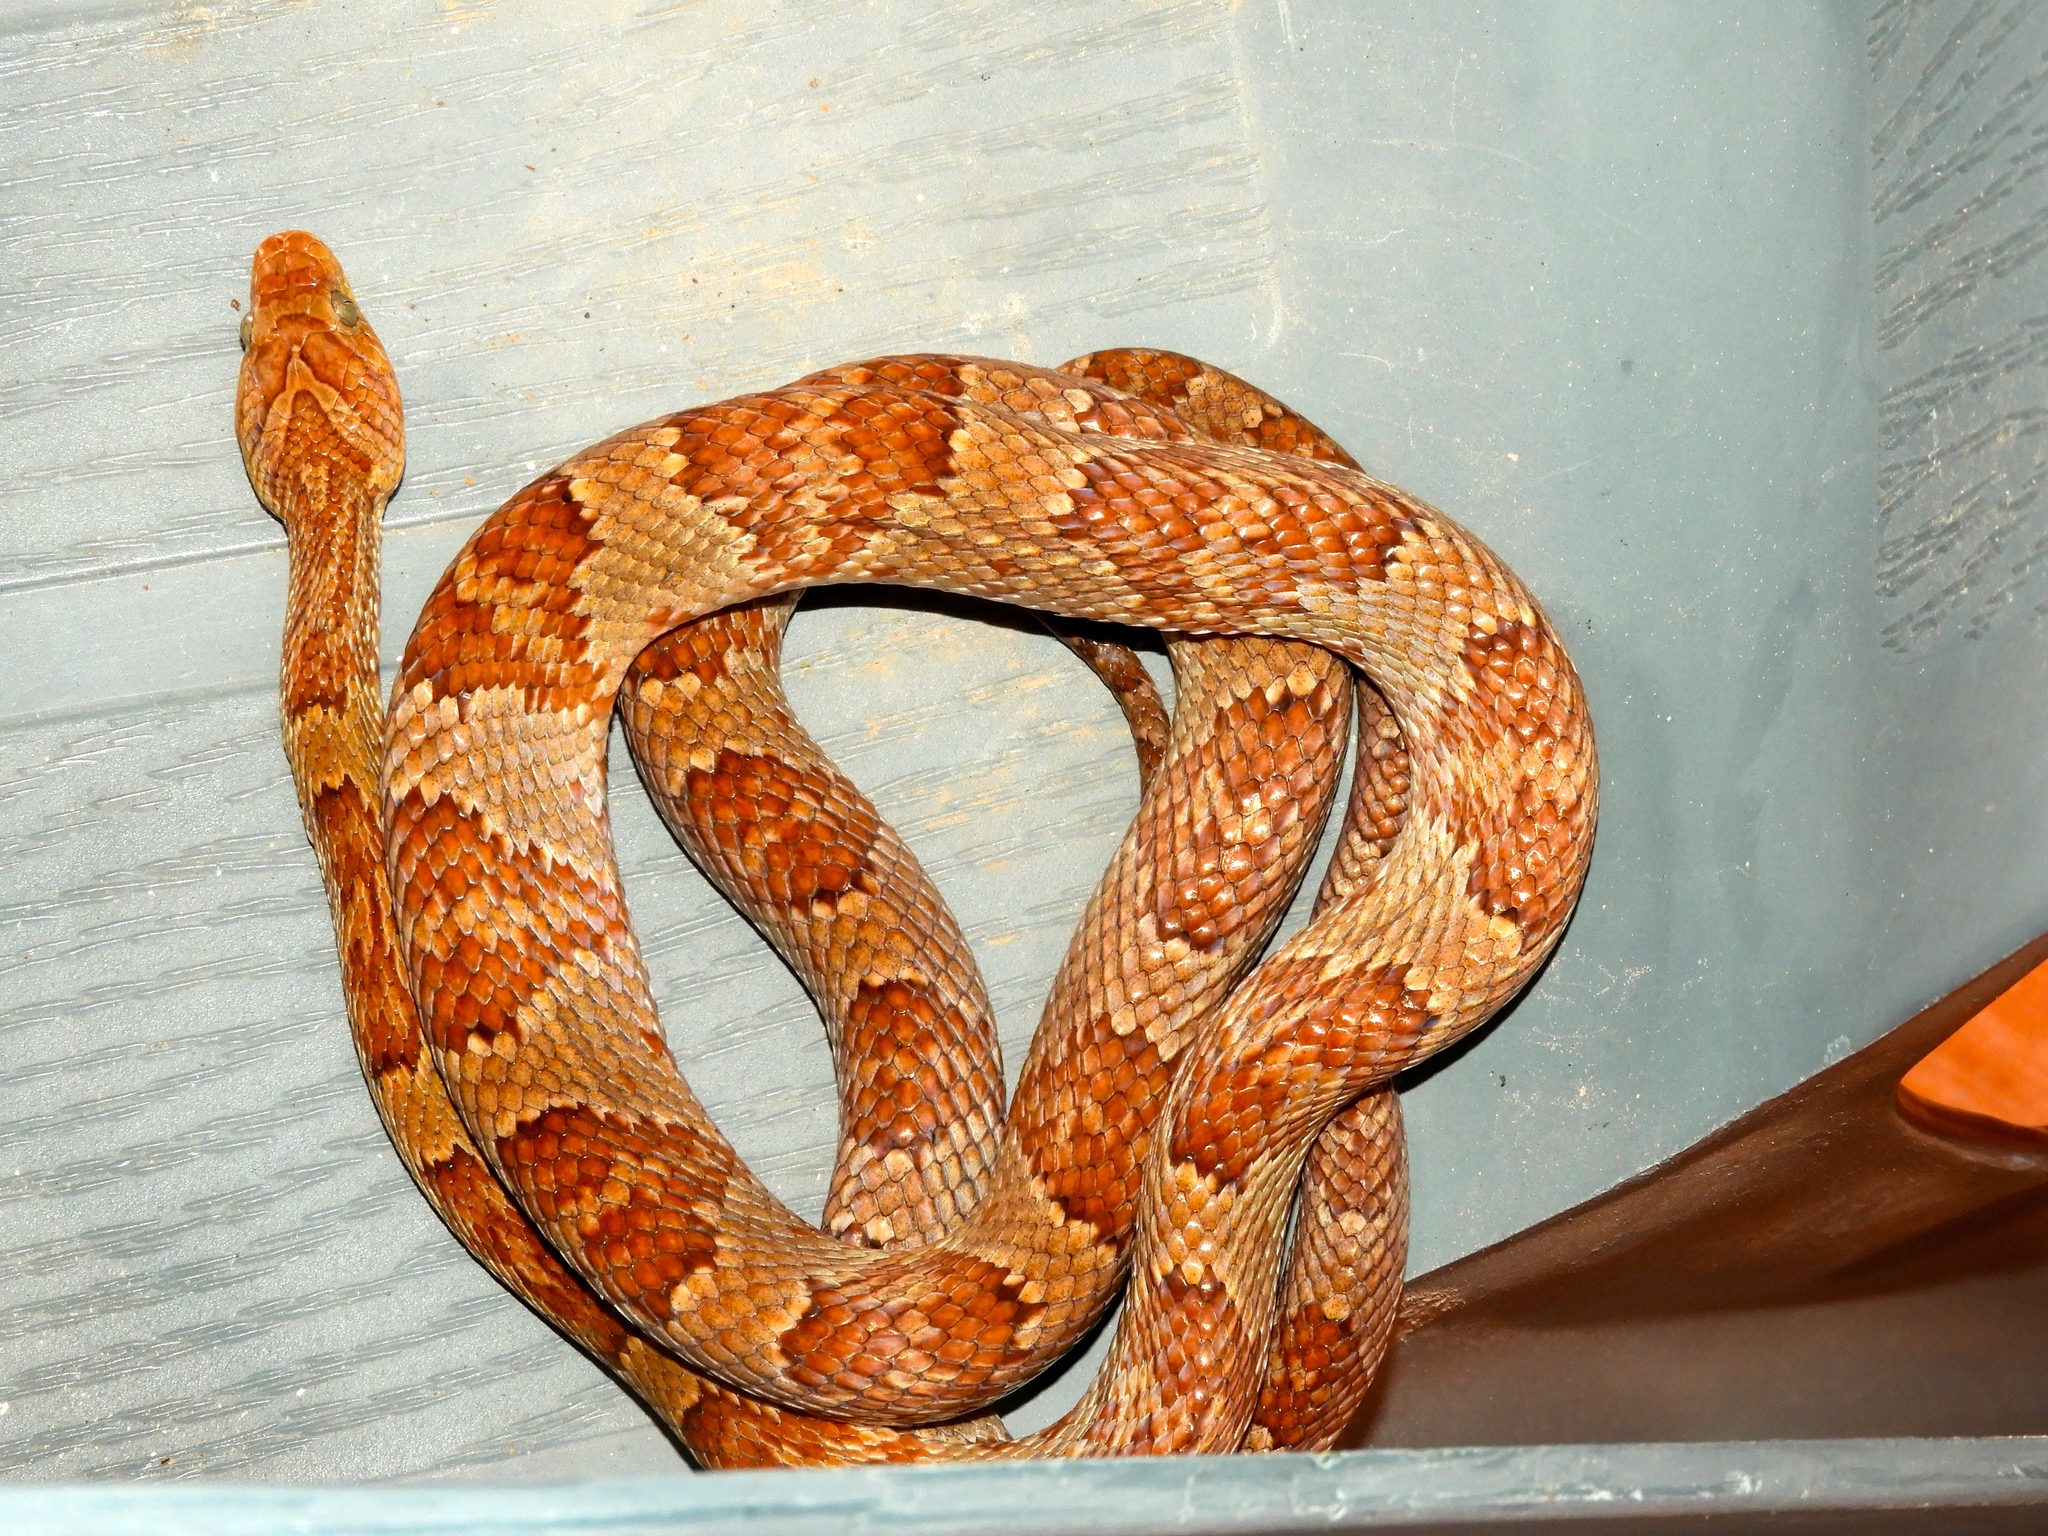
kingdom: Animalia
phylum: Chordata
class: Squamata
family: Colubridae
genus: Trimorphodon
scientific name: Trimorphodon paucimaculatus
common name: Sinaloan lyresnake
